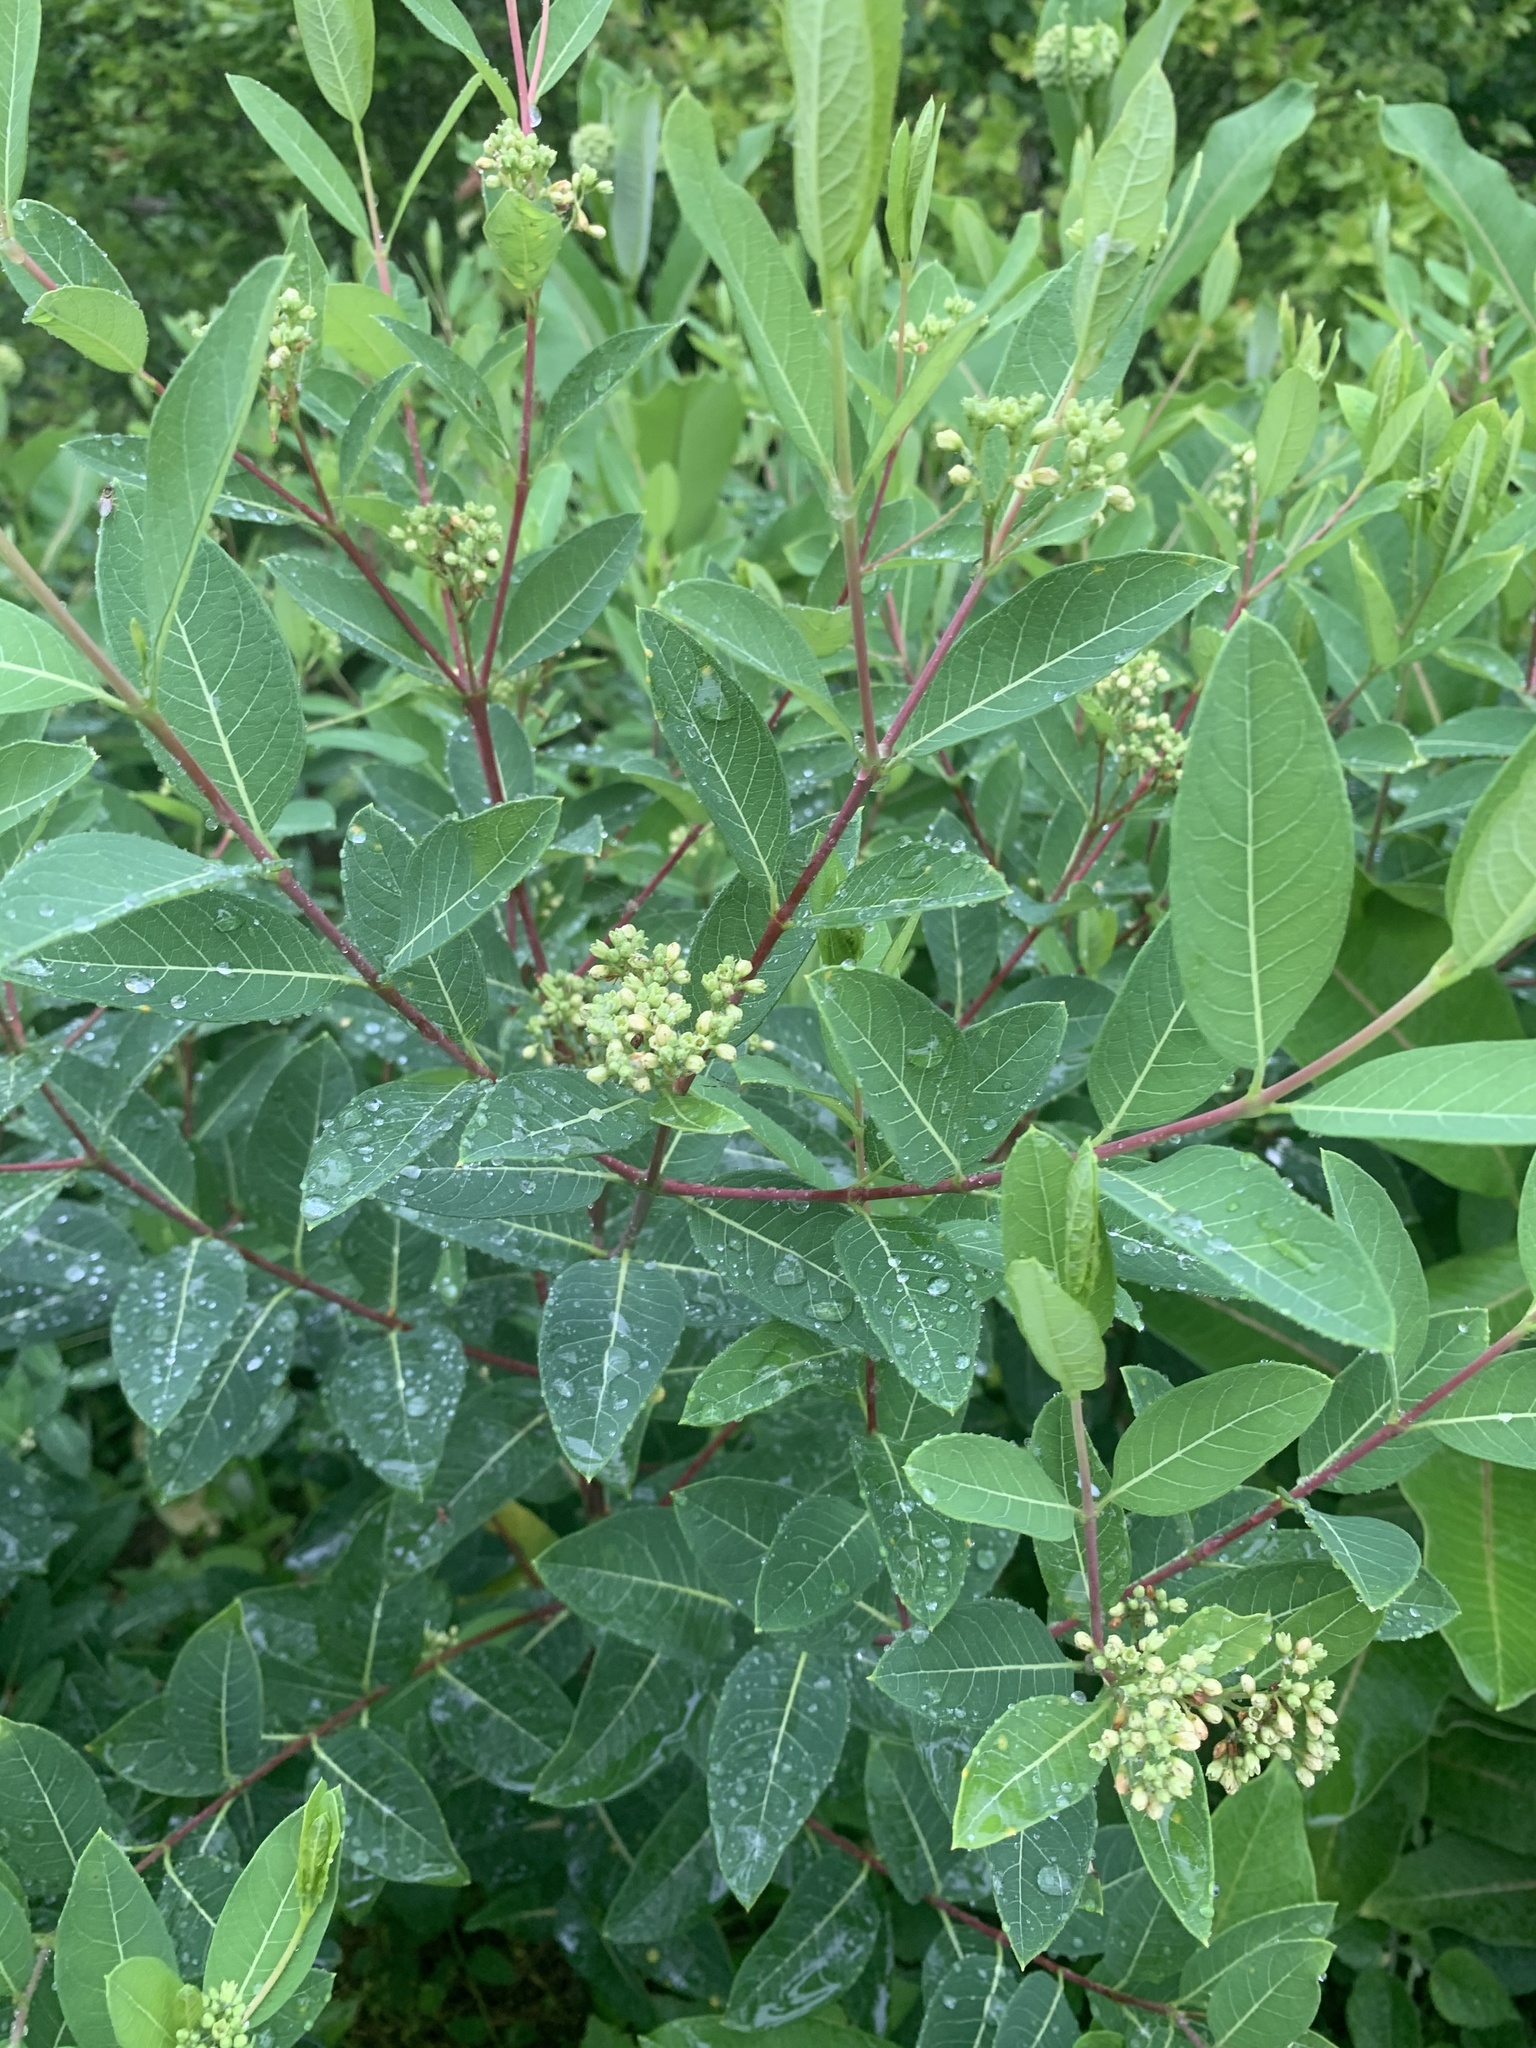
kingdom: Plantae
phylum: Tracheophyta
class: Magnoliopsida
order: Gentianales
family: Apocynaceae
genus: Apocynum
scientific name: Apocynum cannabinum
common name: Hemp dogbane
